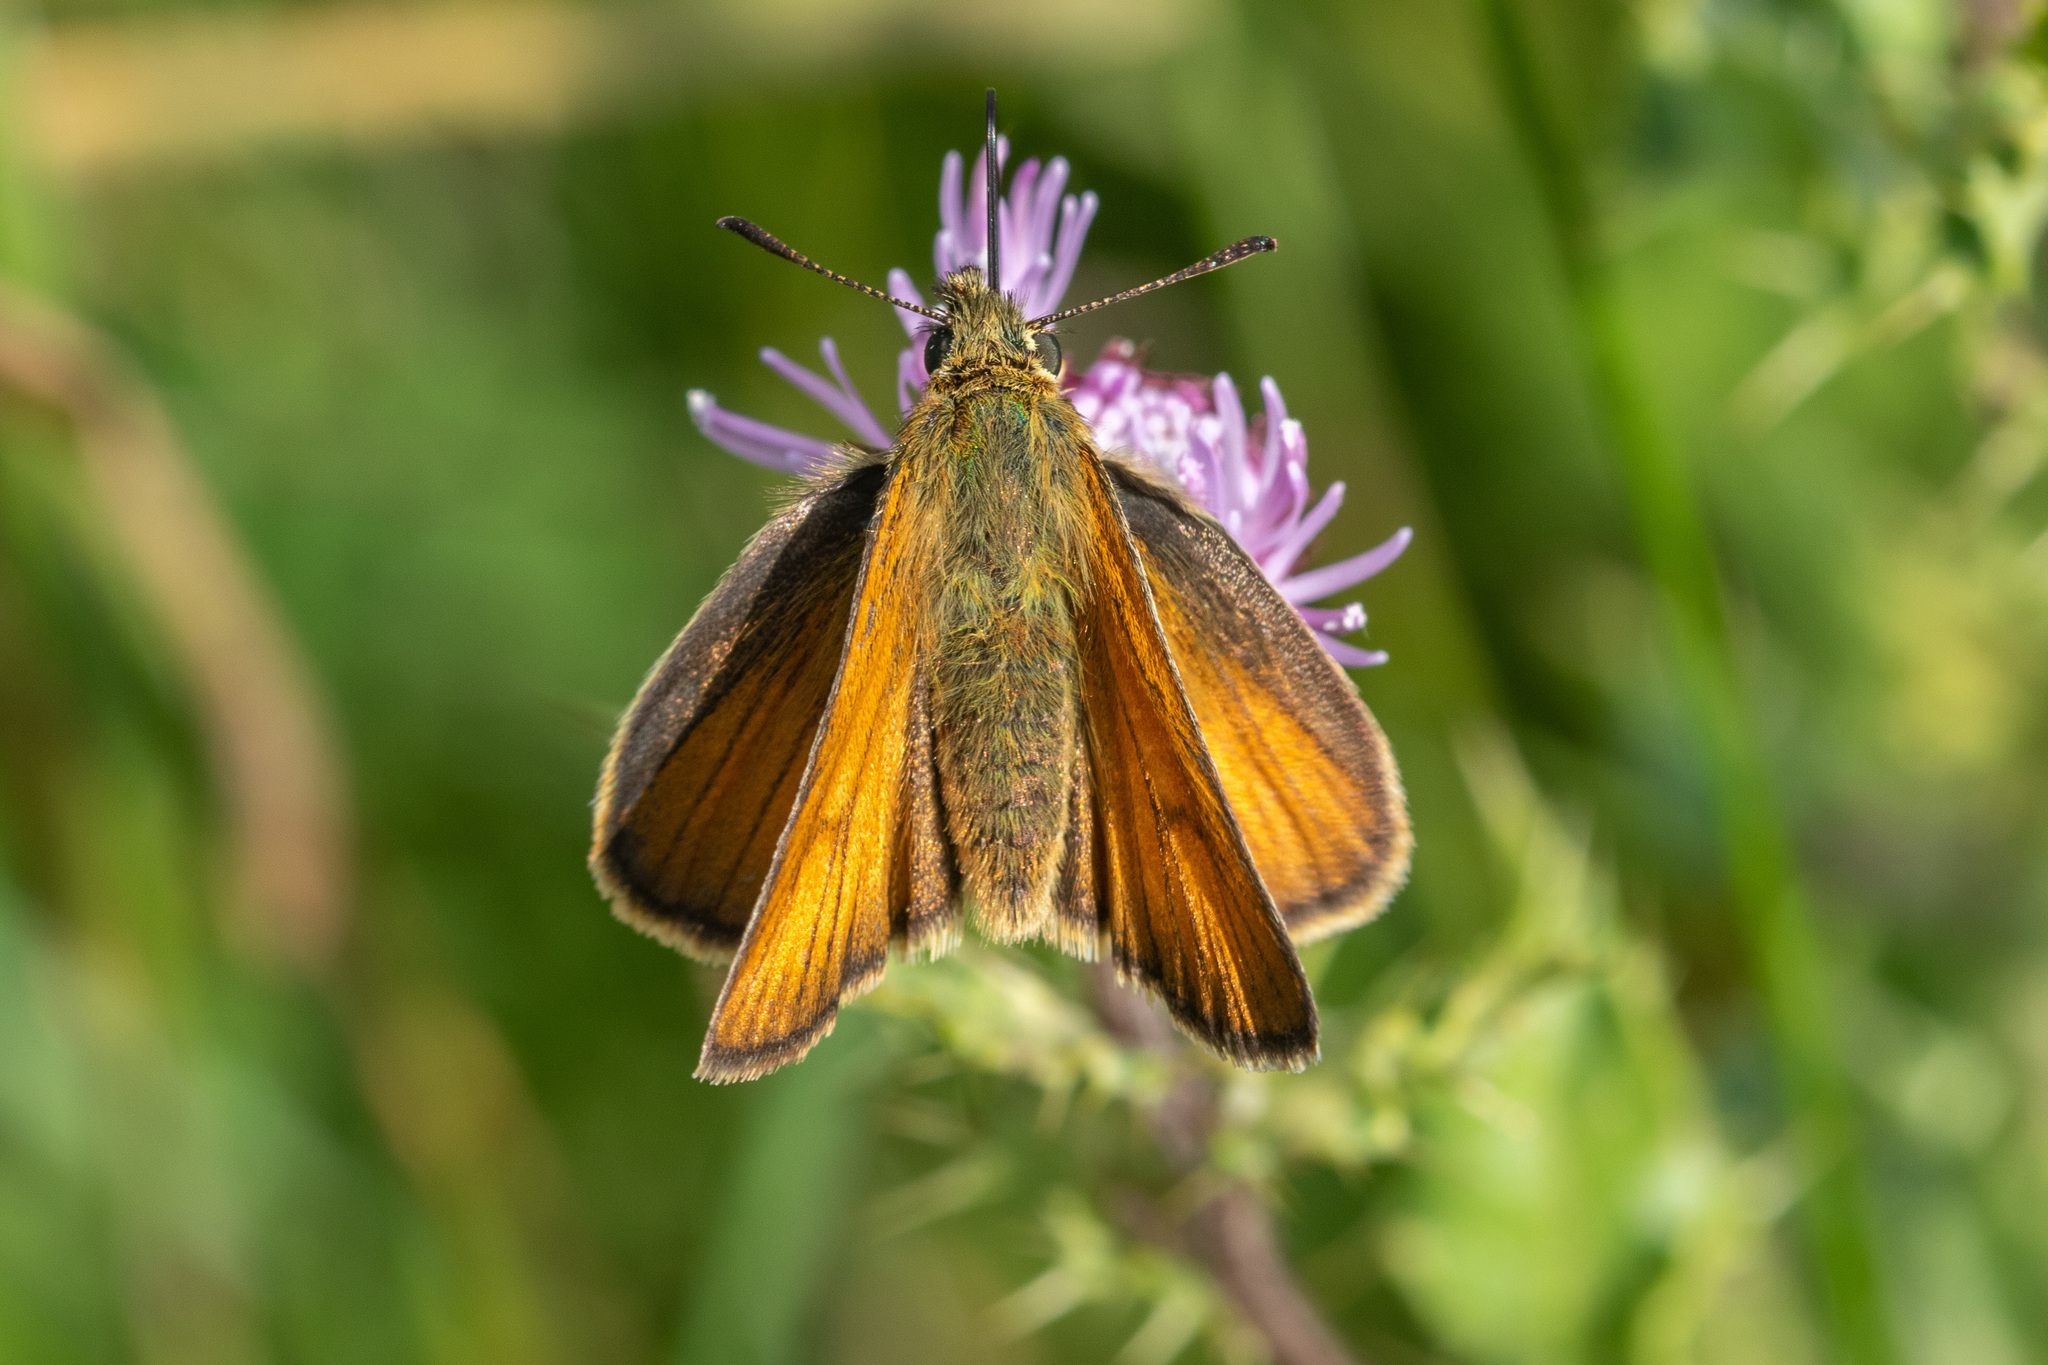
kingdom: Animalia
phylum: Arthropoda
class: Insecta
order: Lepidoptera
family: Hesperiidae
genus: Thymelicus
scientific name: Thymelicus sylvestris
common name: Small skipper
